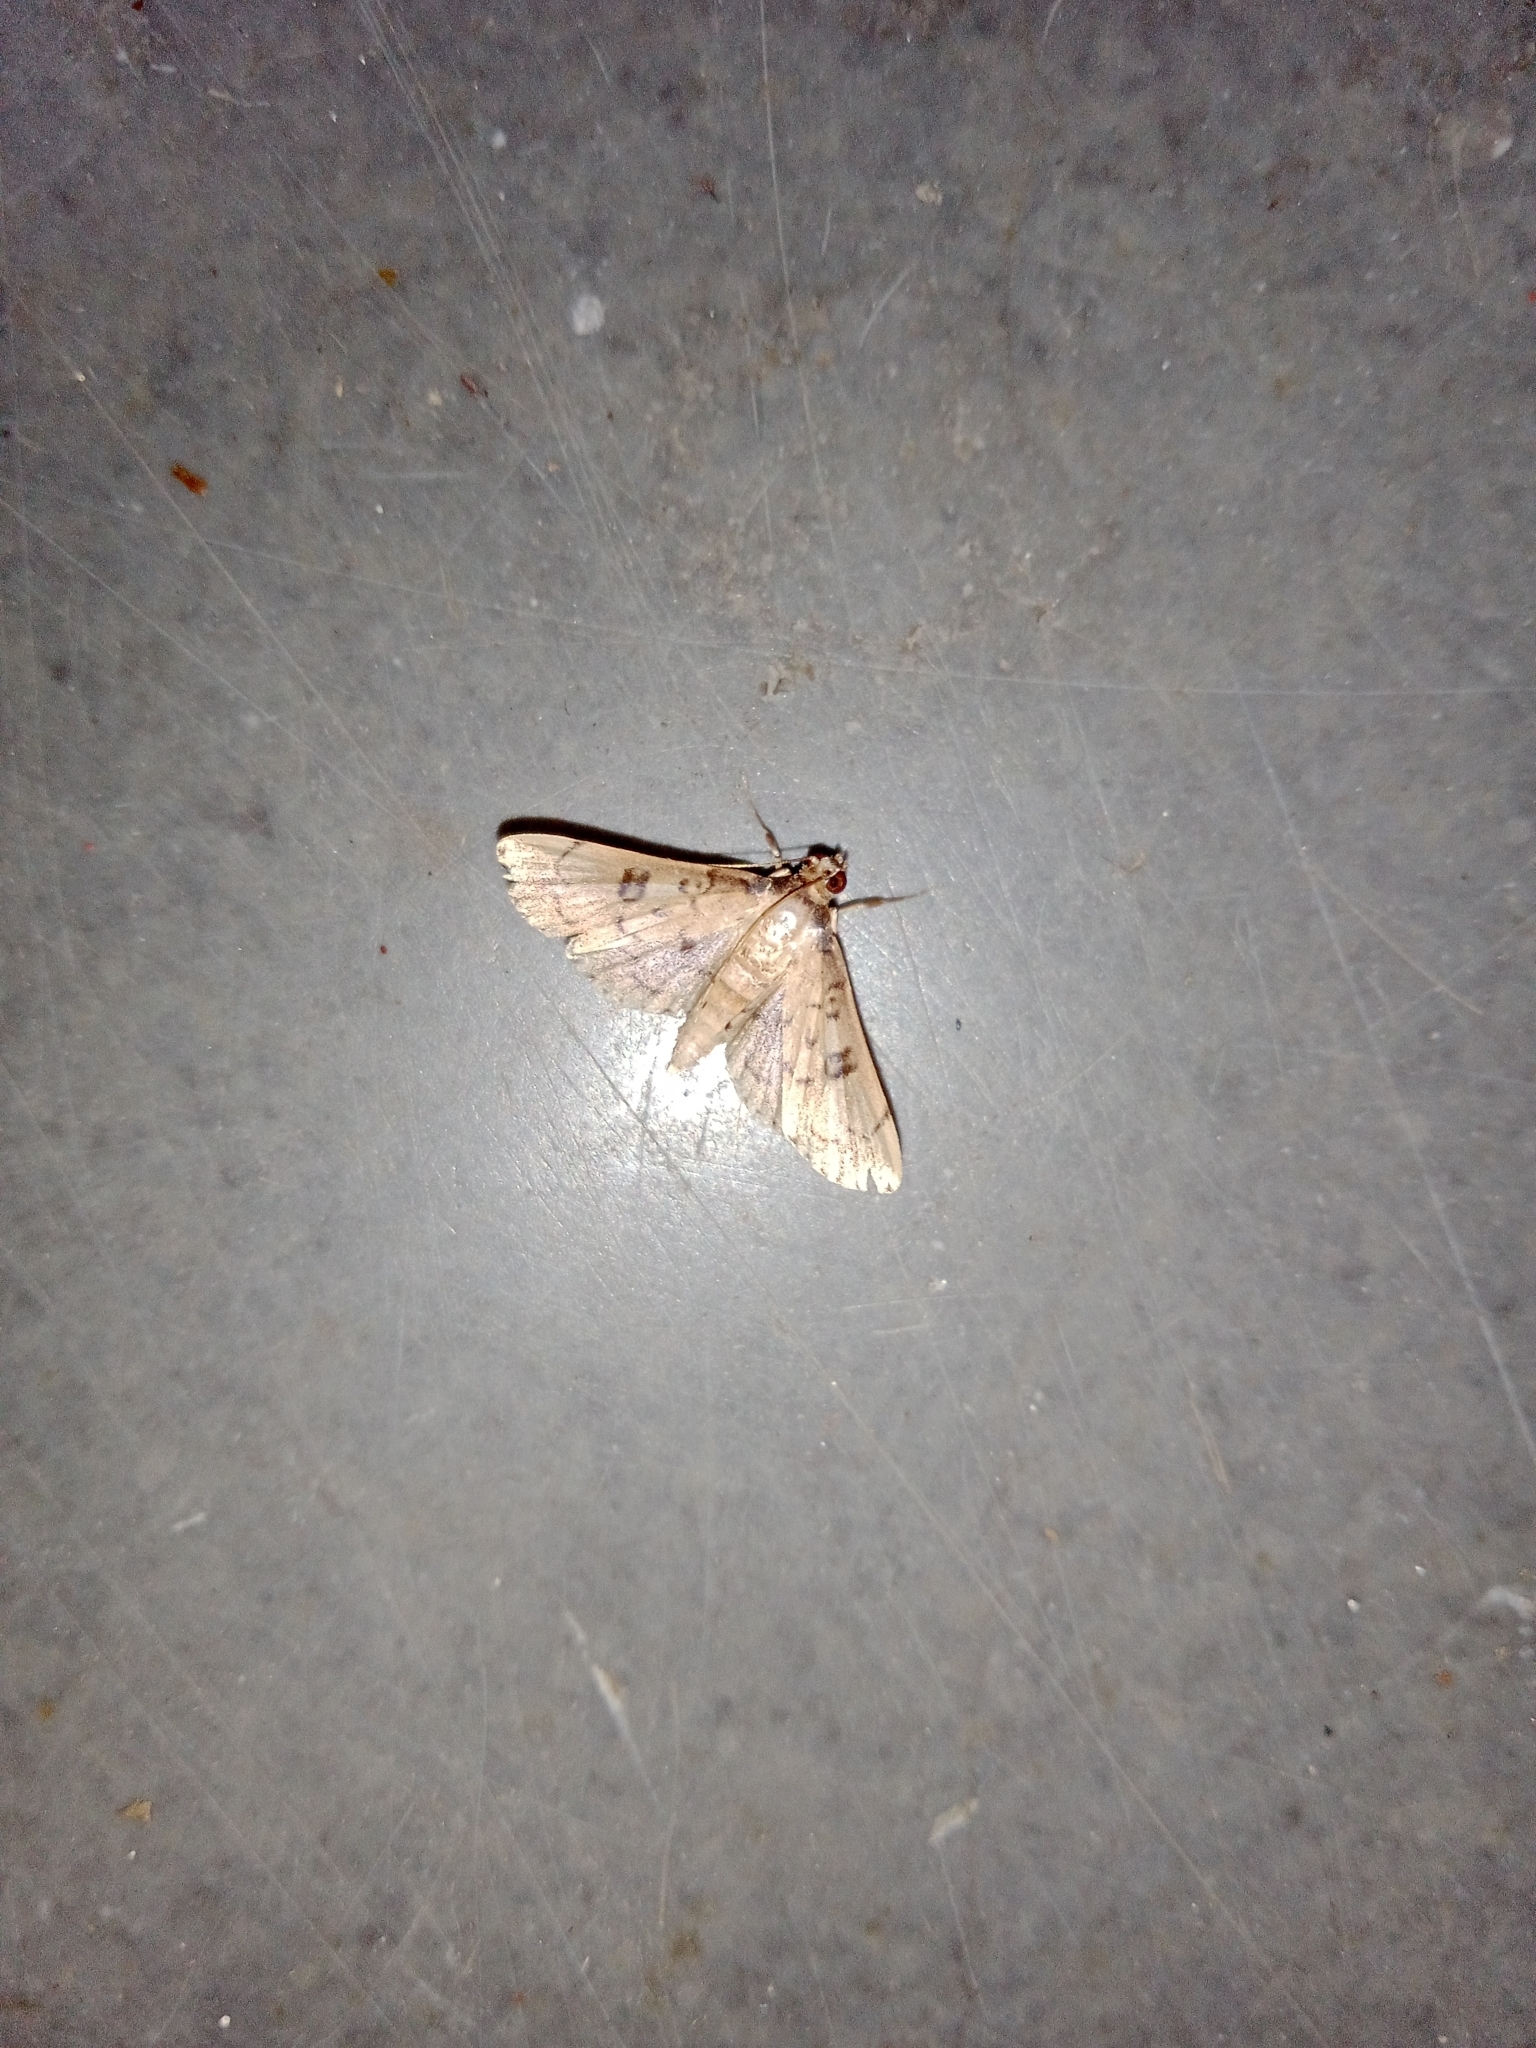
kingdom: Animalia
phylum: Arthropoda
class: Insecta
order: Lepidoptera
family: Crambidae
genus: Nacoleia
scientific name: Nacoleia charesalis
